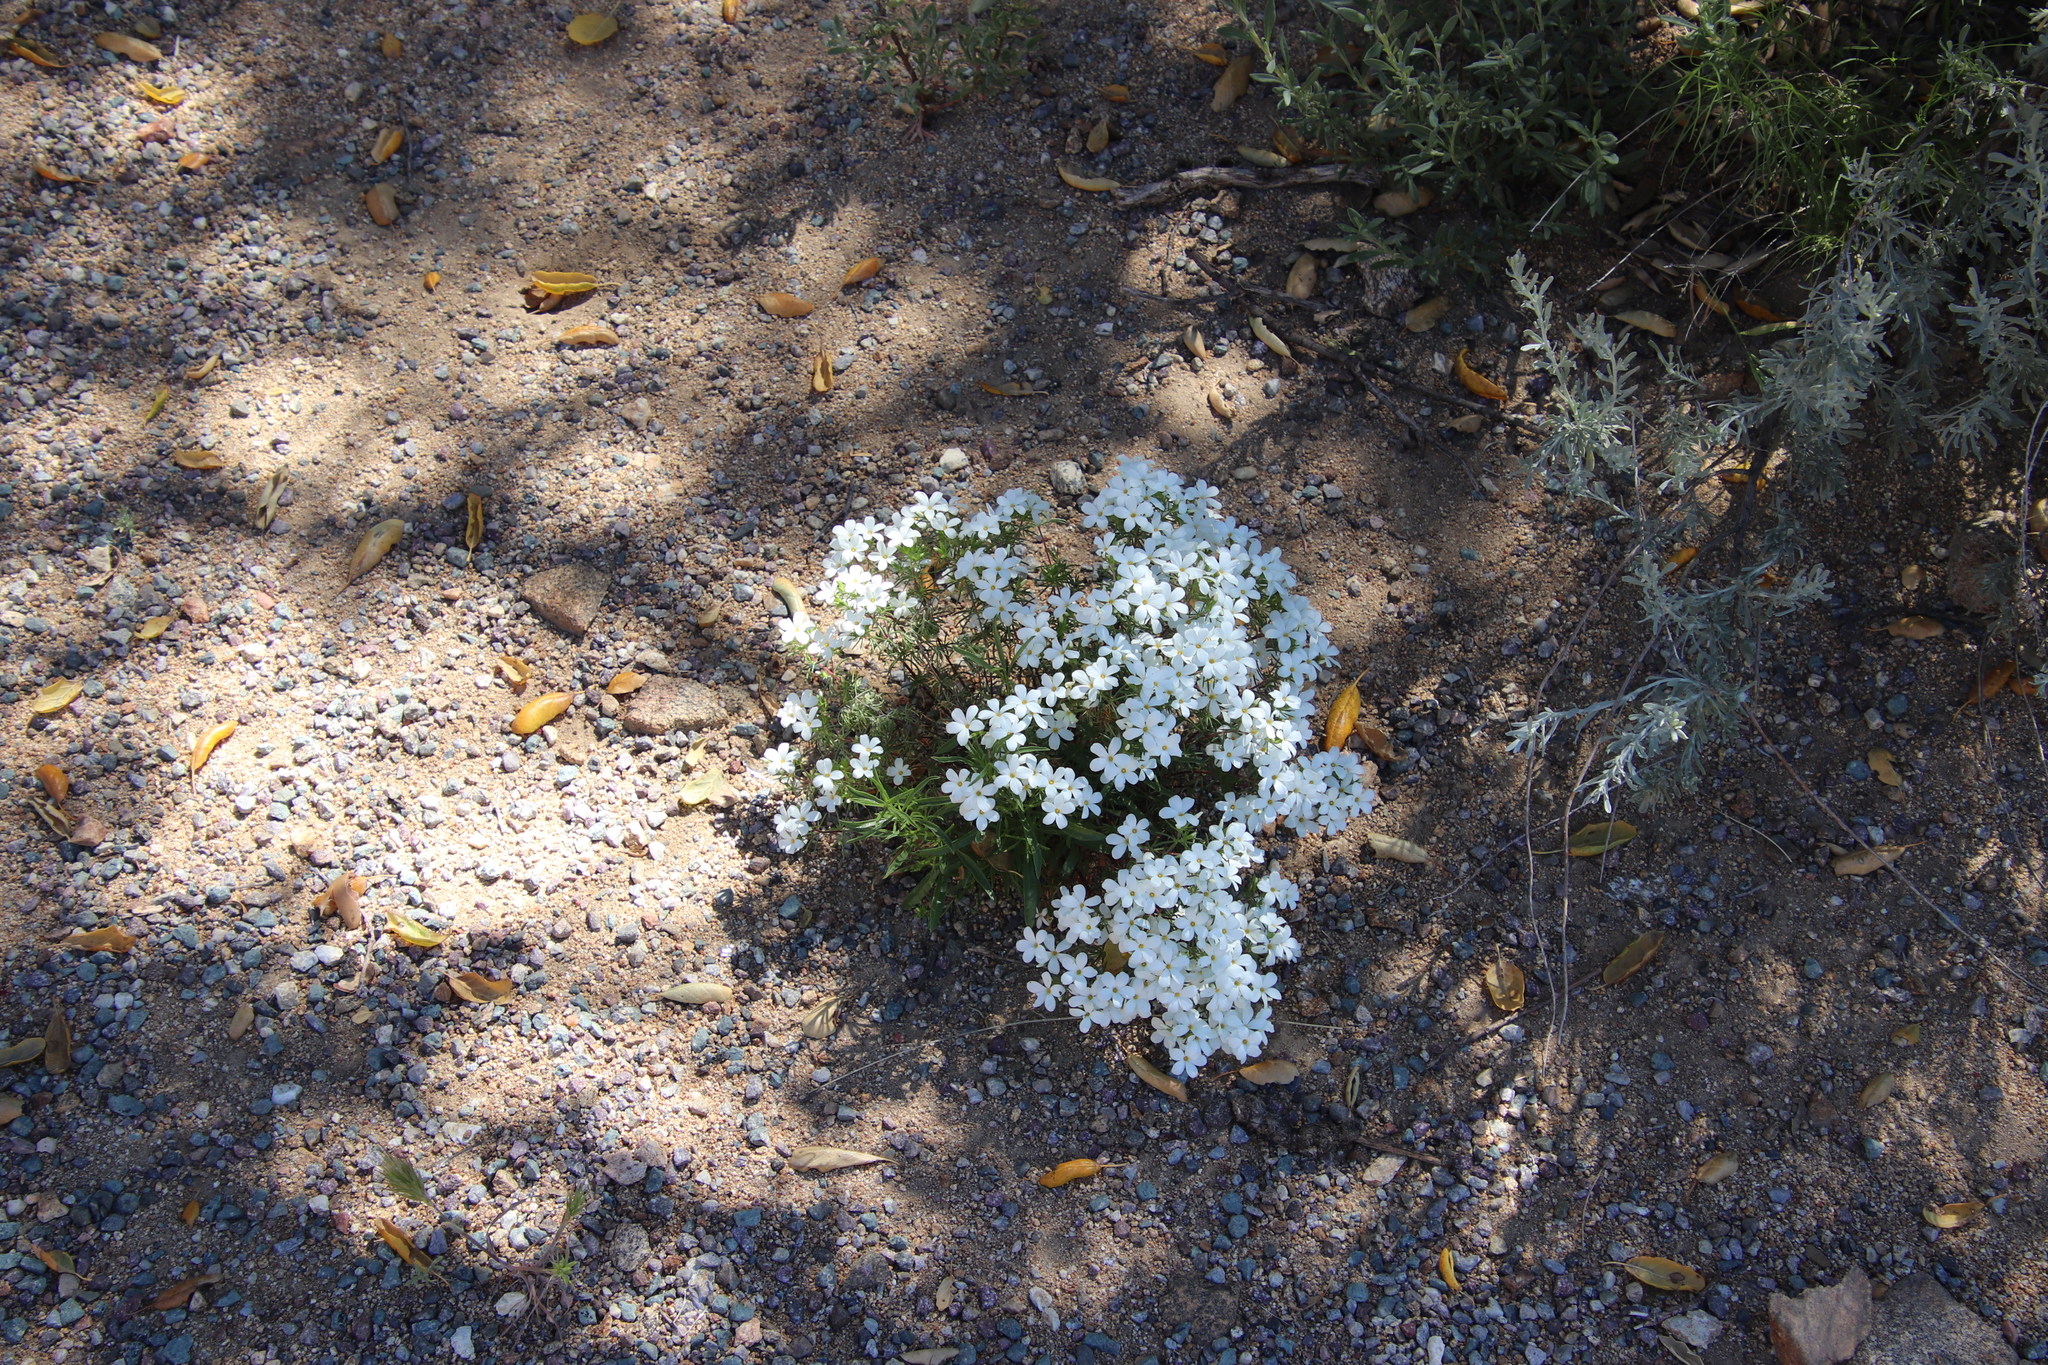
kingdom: Plantae
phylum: Tracheophyta
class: Magnoliopsida
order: Ericales
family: Polemoniaceae
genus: Leptosiphon
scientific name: Leptosiphon floribundum
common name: Many-flower linanthus
